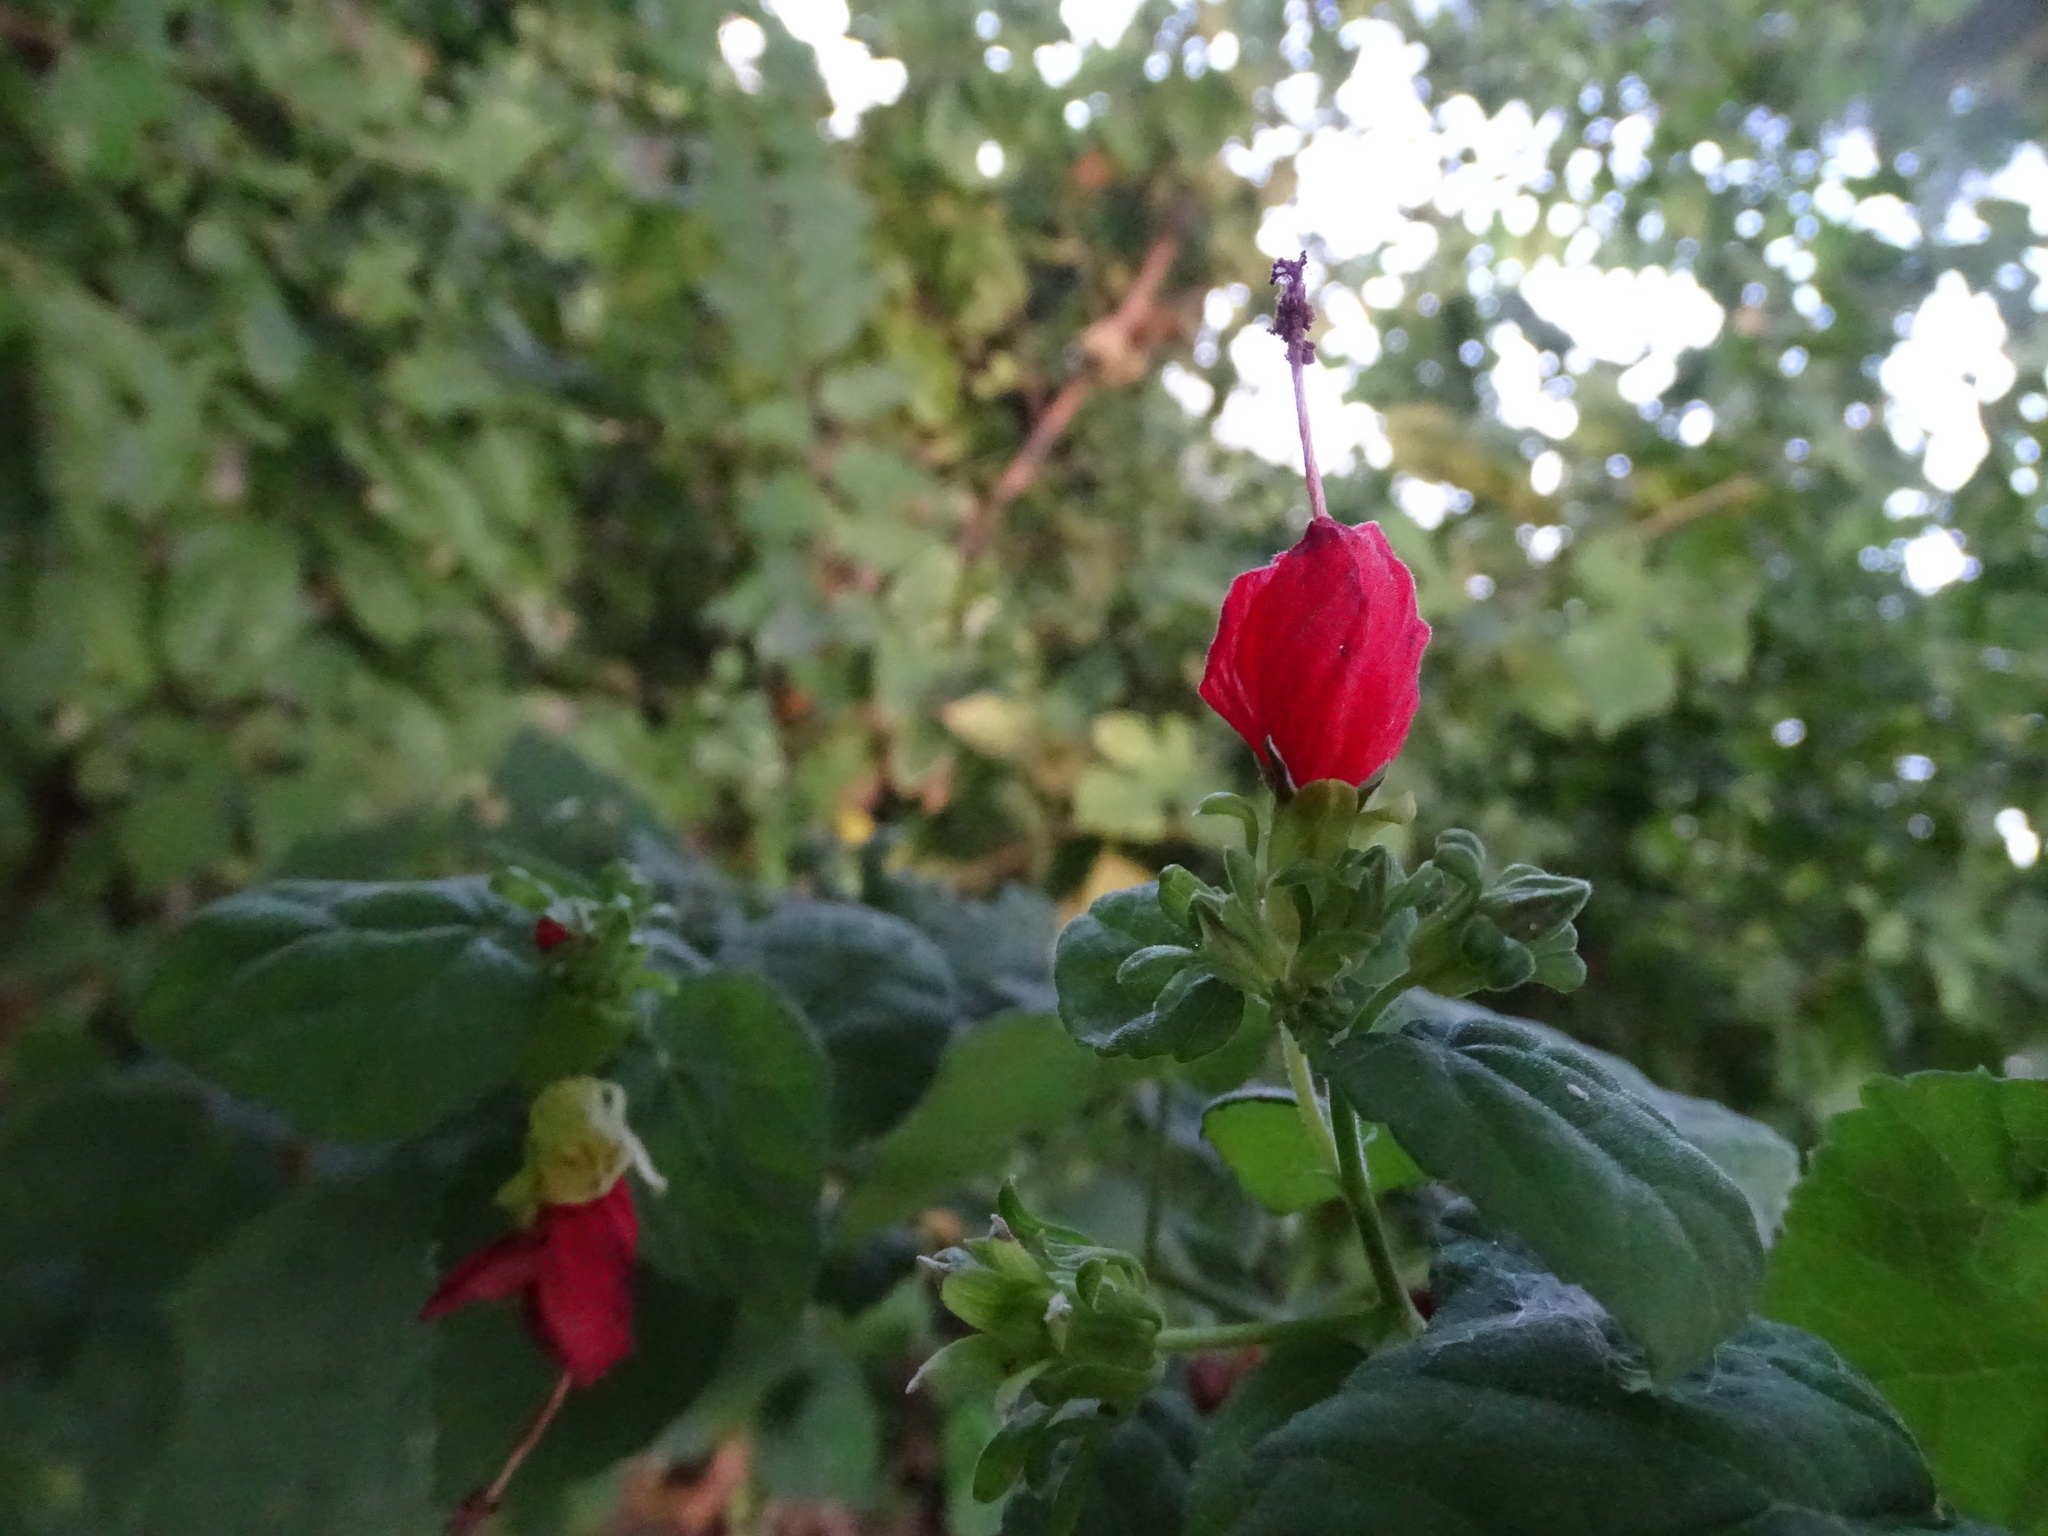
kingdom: Plantae
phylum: Tracheophyta
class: Magnoliopsida
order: Malvales
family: Malvaceae
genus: Malvaviscus
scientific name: Malvaviscus arboreus
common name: Wax mallow
